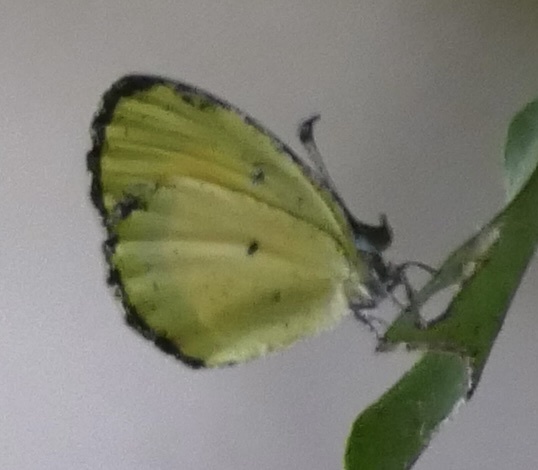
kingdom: Animalia
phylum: Arthropoda
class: Insecta
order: Lepidoptera
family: Lycaenidae
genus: Citrinophila
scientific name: Citrinophila similis
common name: Similar yellow
